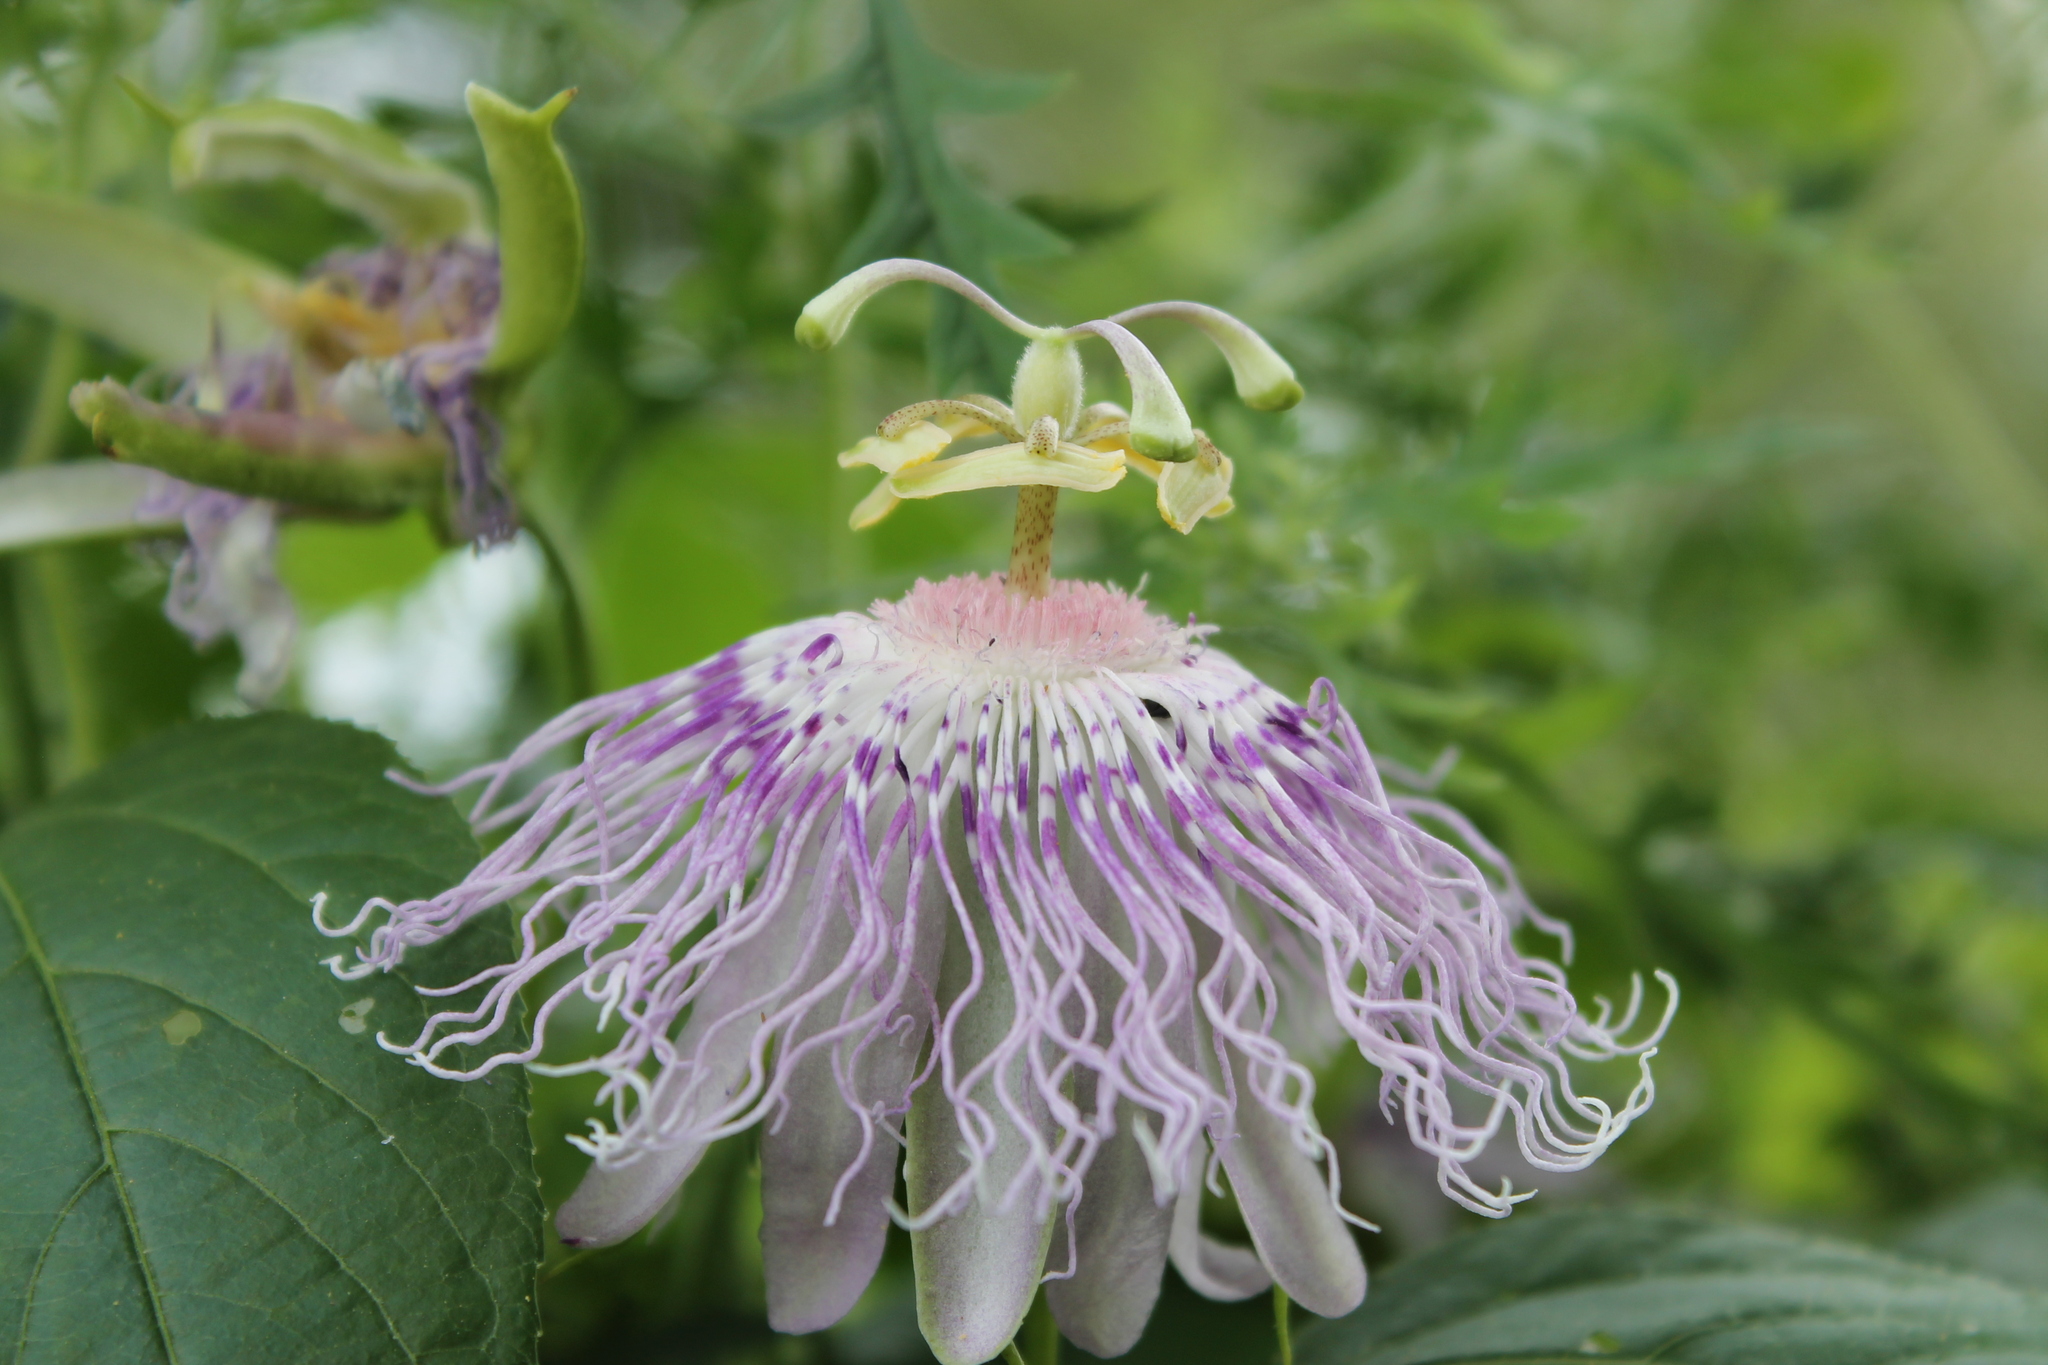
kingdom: Plantae
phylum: Tracheophyta
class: Magnoliopsida
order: Malpighiales
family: Passifloraceae
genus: Passiflora
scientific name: Passiflora incarnata
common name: Apricot-vine
